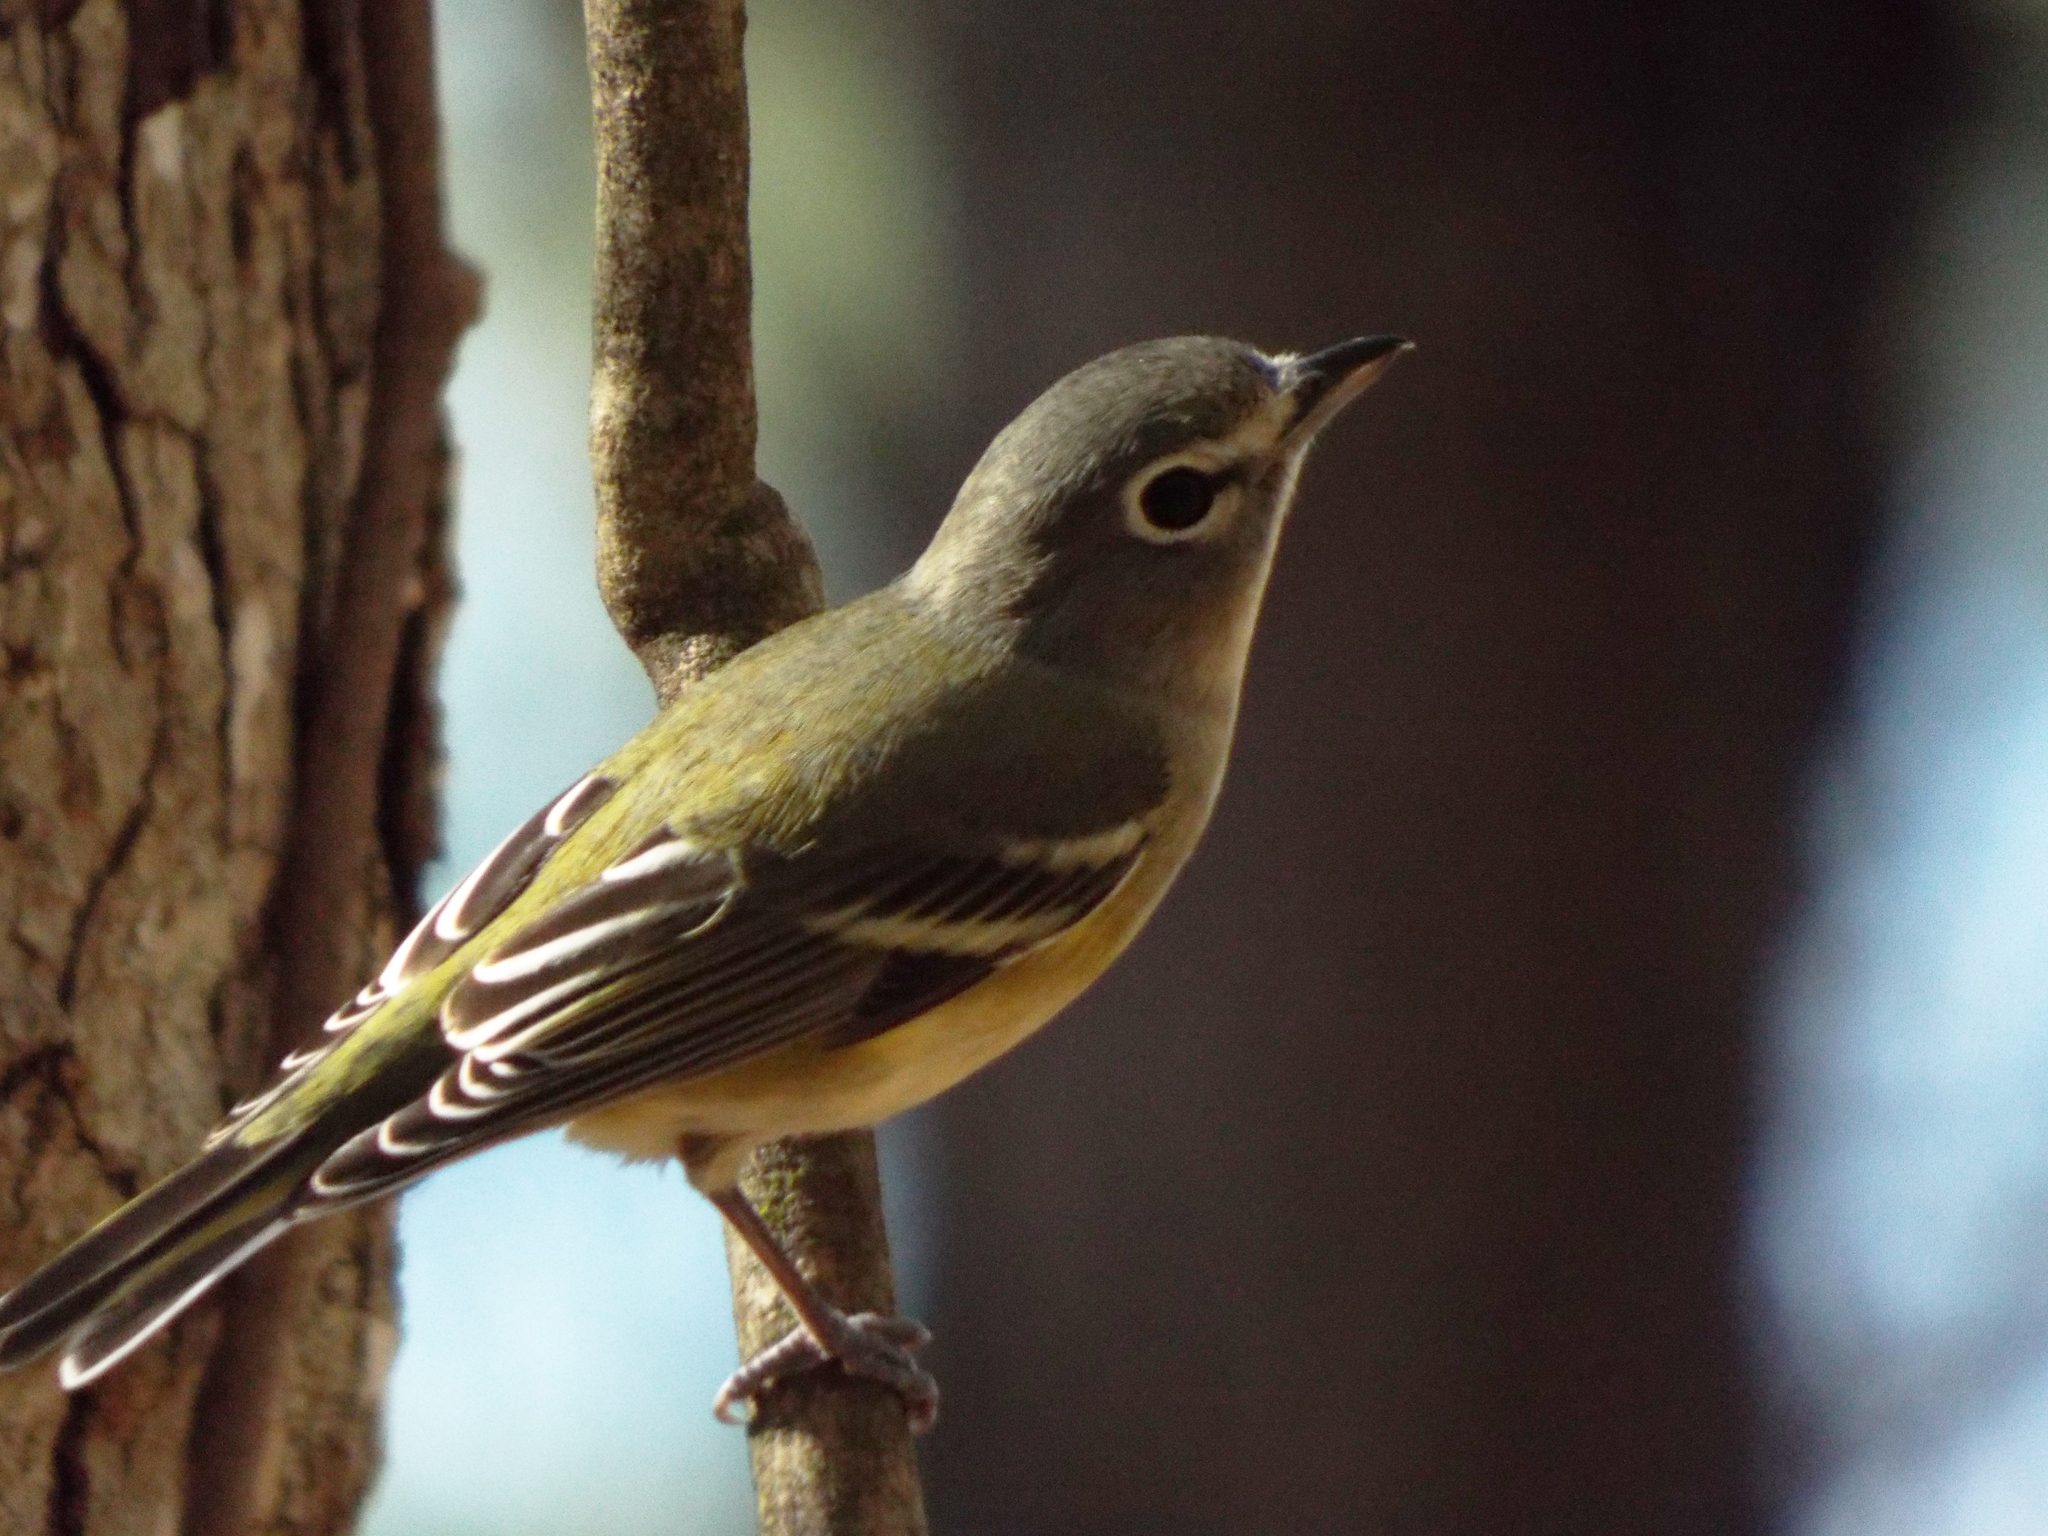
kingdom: Animalia
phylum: Chordata
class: Aves
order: Passeriformes
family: Vireonidae
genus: Vireo
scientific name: Vireo solitarius
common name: Blue-headed vireo
